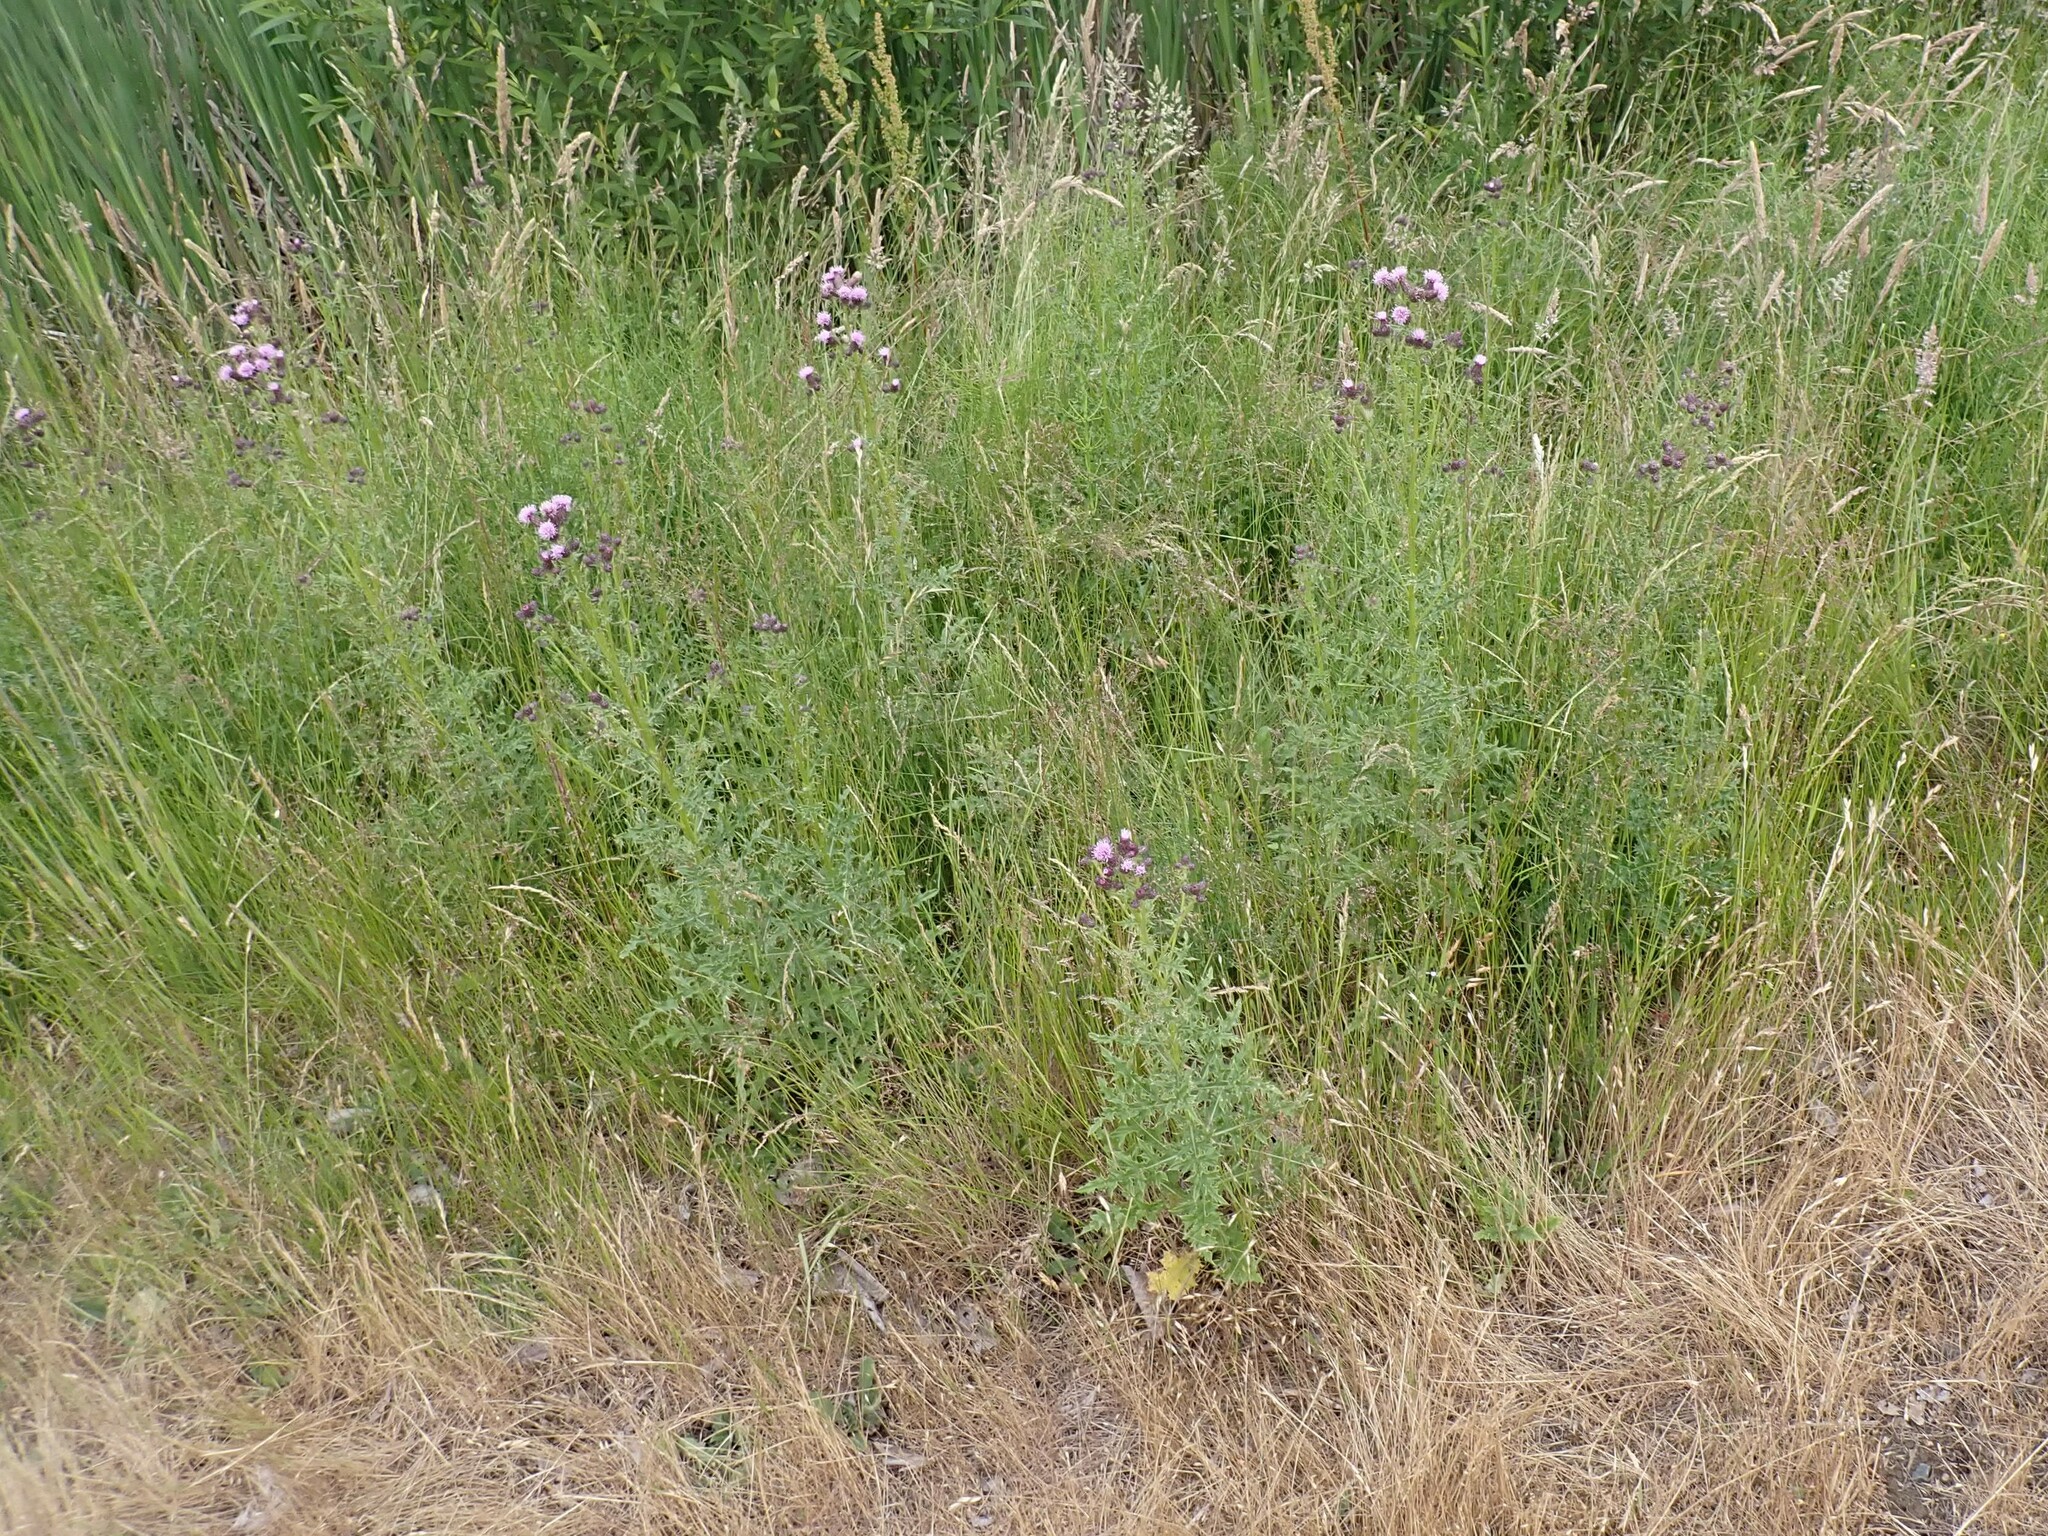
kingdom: Plantae
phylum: Tracheophyta
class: Magnoliopsida
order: Asterales
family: Asteraceae
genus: Cirsium
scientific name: Cirsium arvense
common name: Creeping thistle
